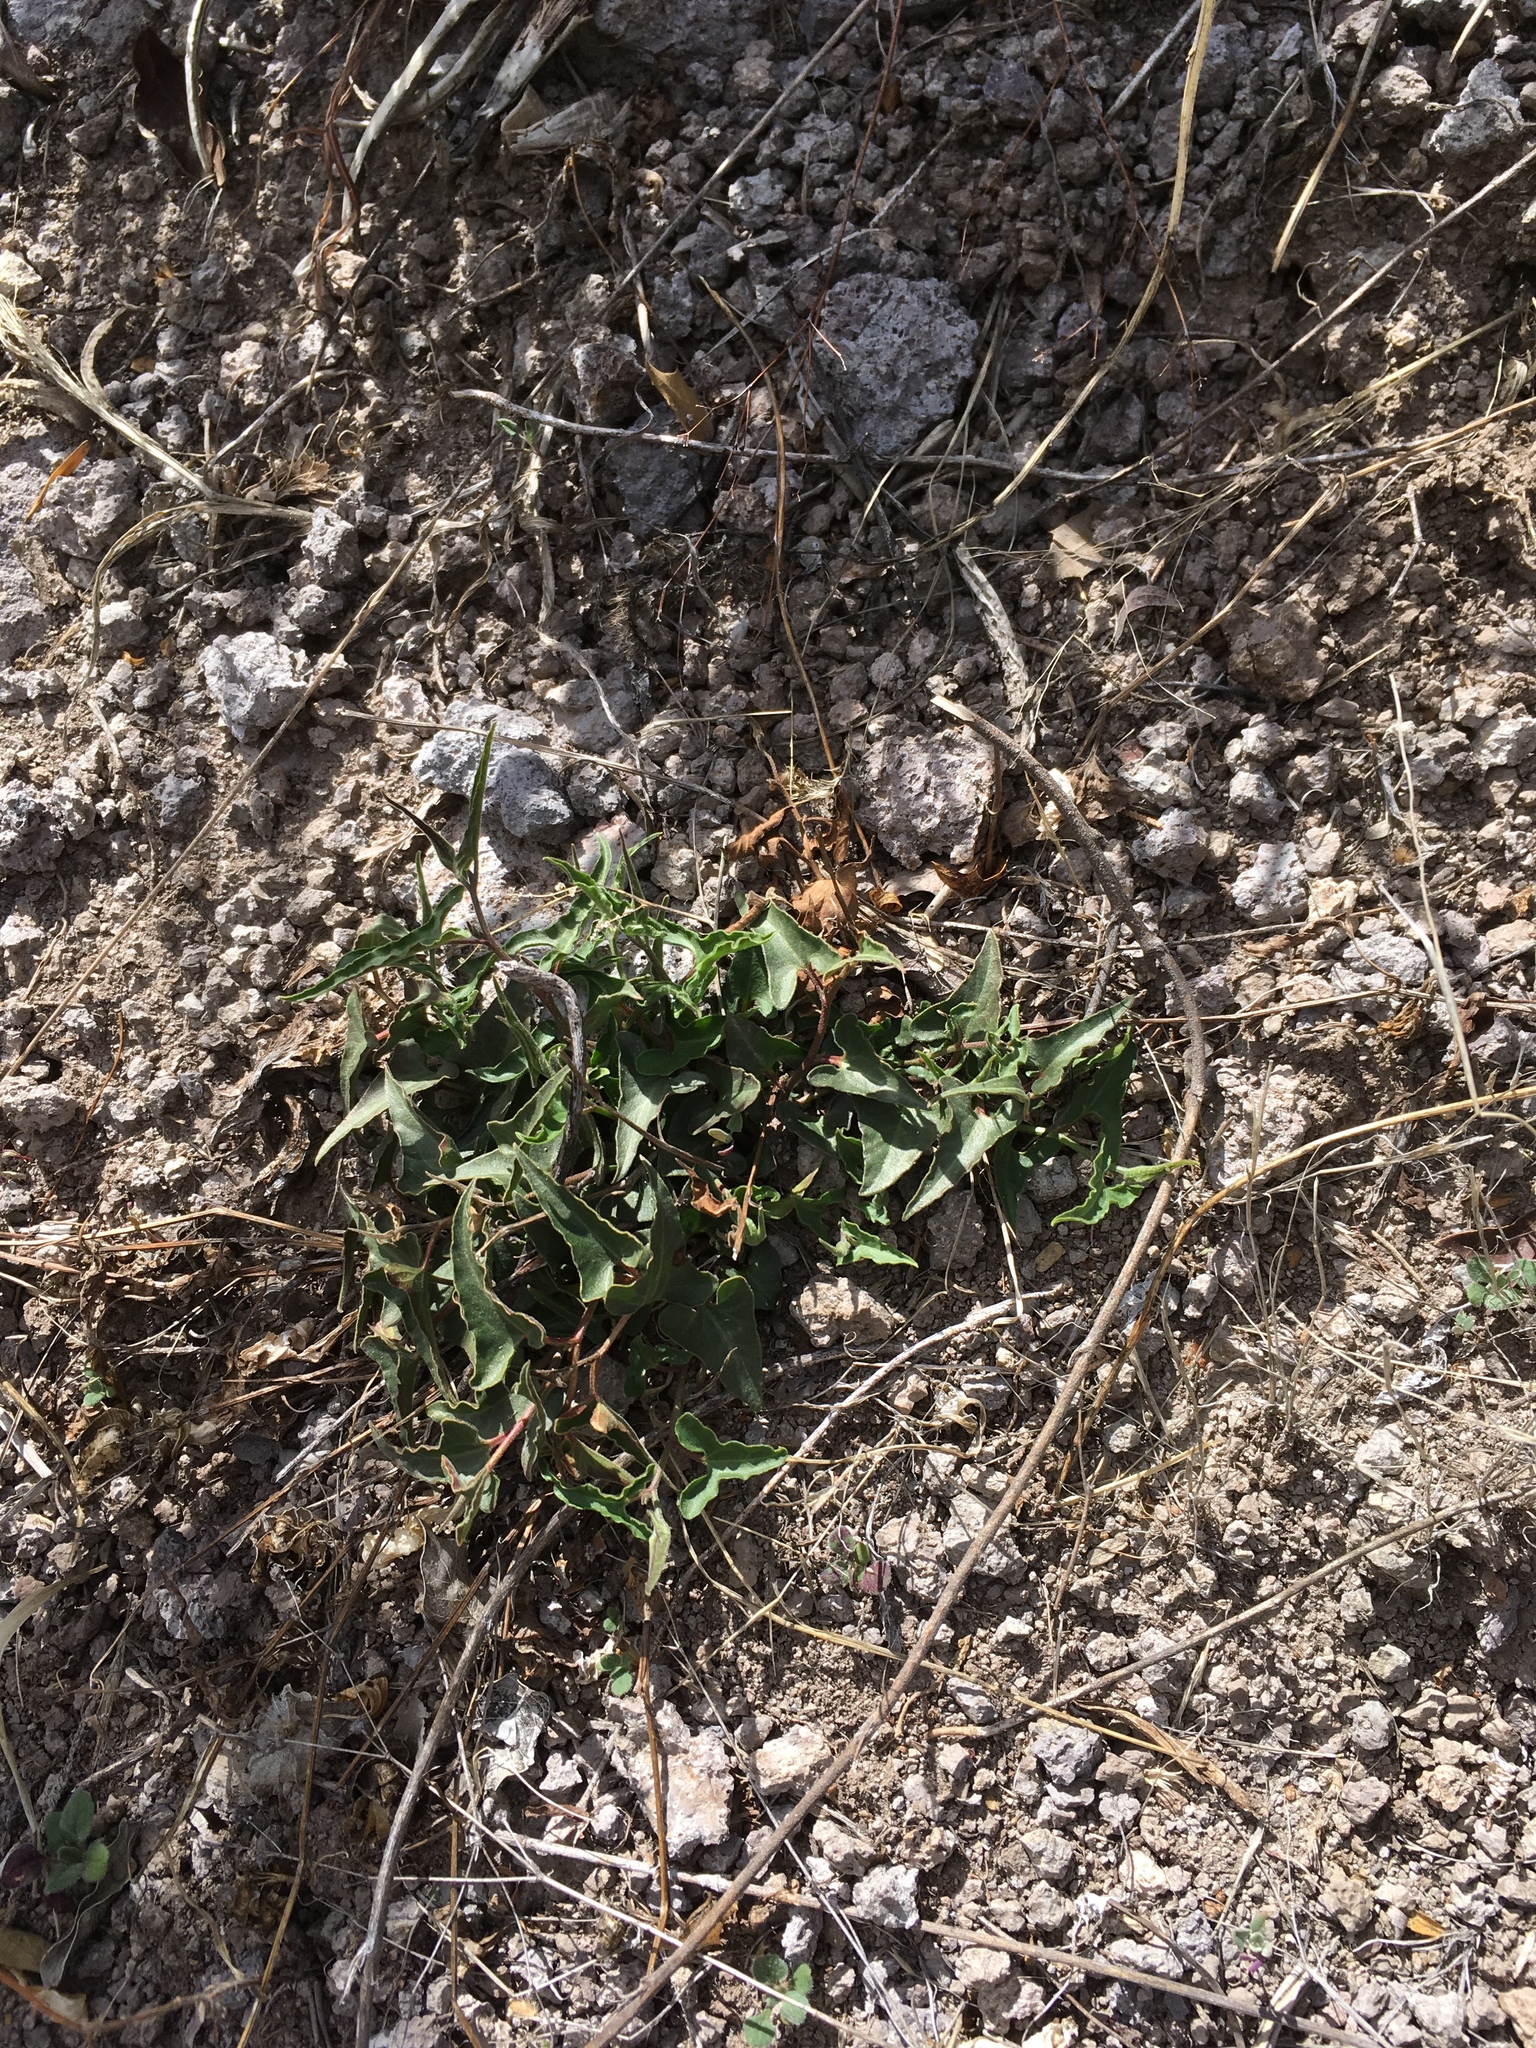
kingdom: Plantae
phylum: Tracheophyta
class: Magnoliopsida
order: Piperales
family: Aristolochiaceae
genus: Aristolochia
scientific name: Aristolochia watsonii
